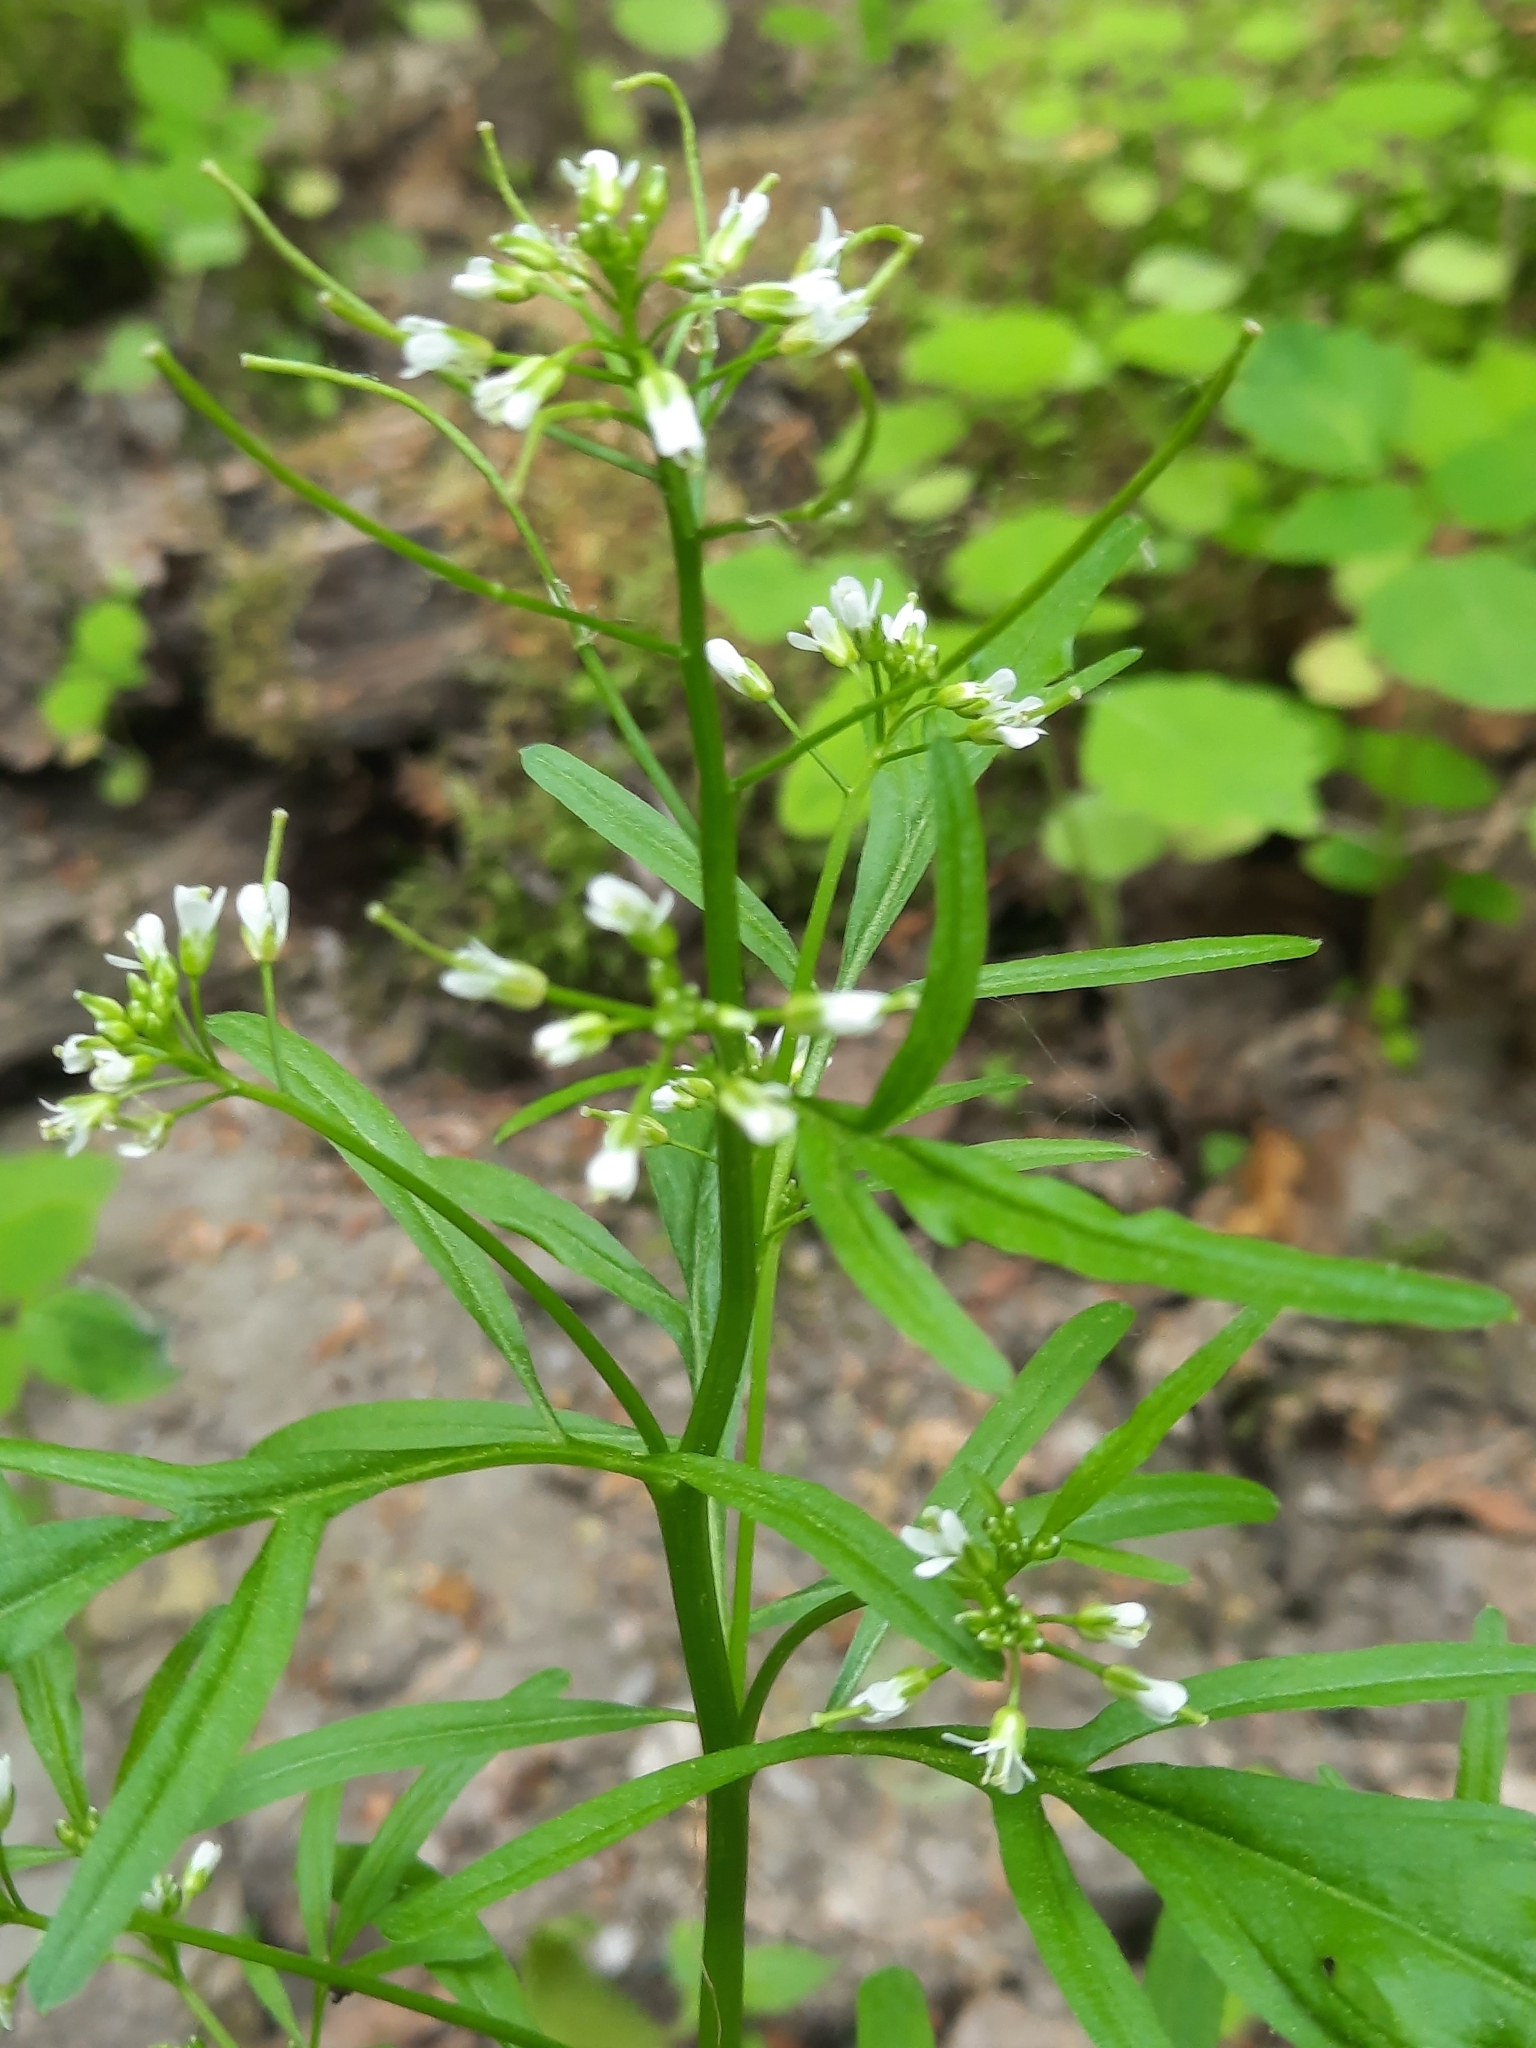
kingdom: Plantae
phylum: Tracheophyta
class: Magnoliopsida
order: Brassicales
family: Brassicaceae
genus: Cardamine
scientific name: Cardamine pensylvanica
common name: Pennsylvania bittercress
